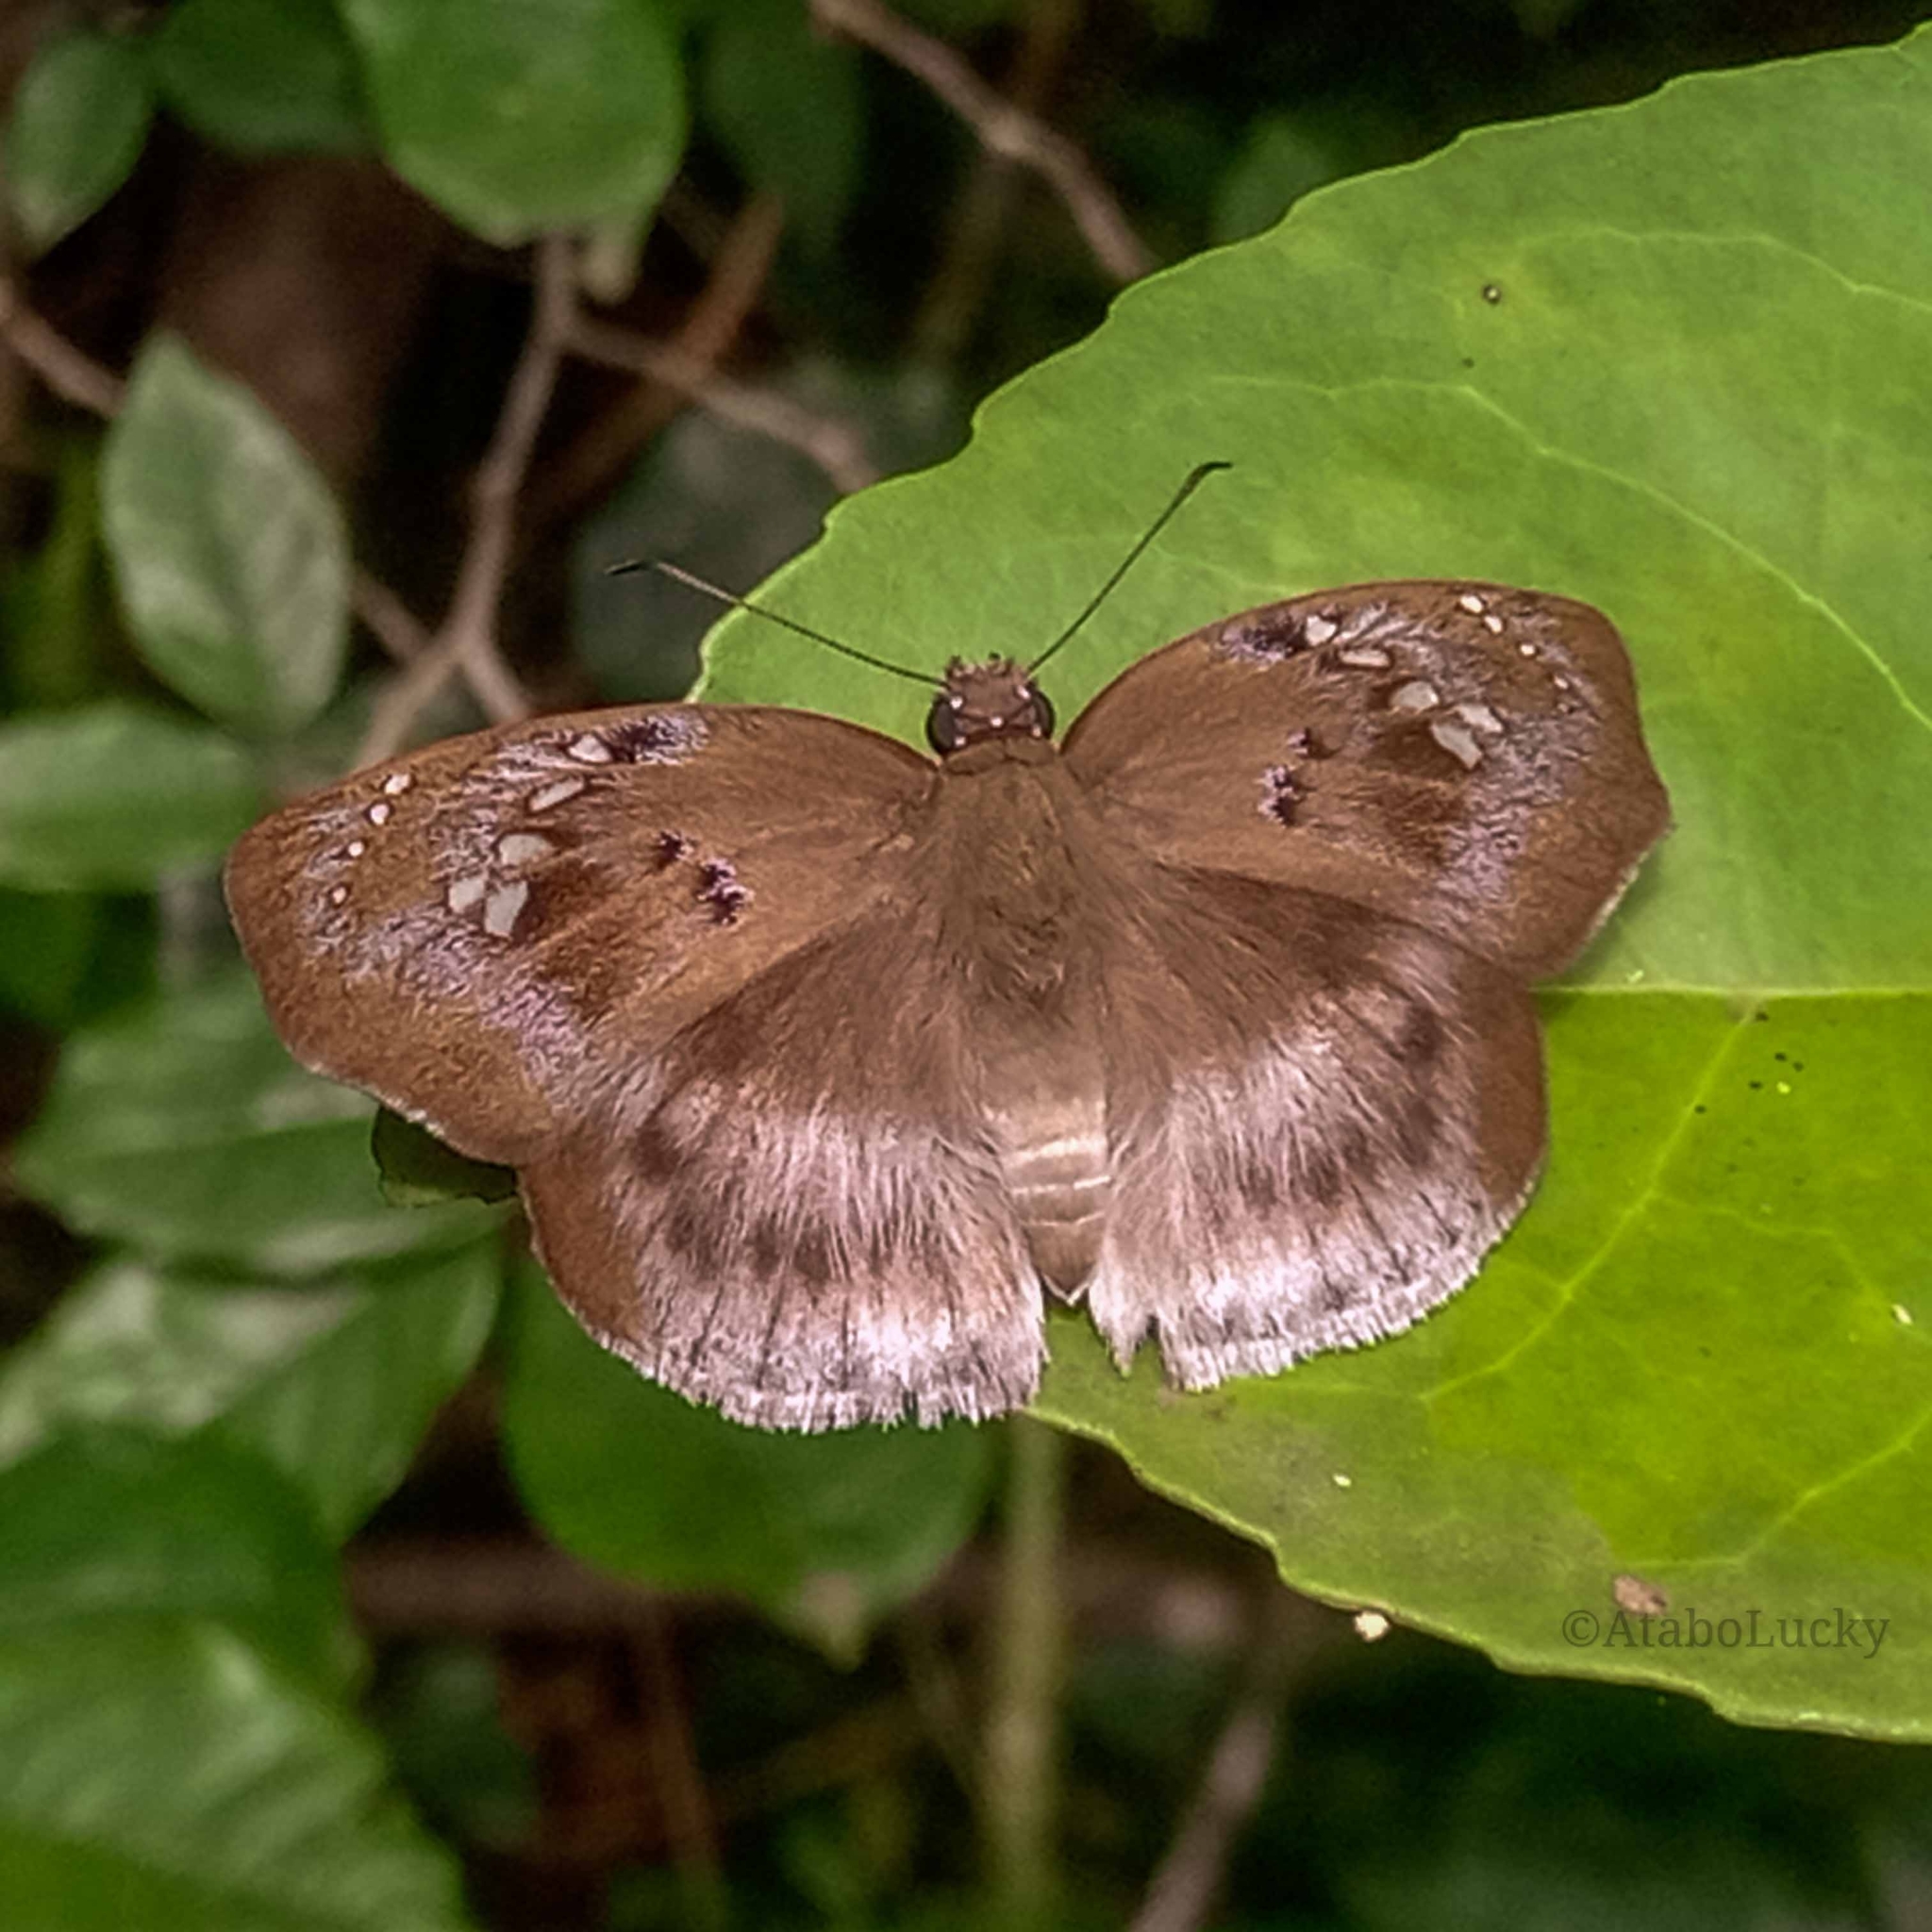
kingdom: Animalia
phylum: Arthropoda
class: Insecta
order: Lepidoptera
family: Hesperiidae
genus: Tagiades
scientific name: Tagiades flesus
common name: Clouded flat
